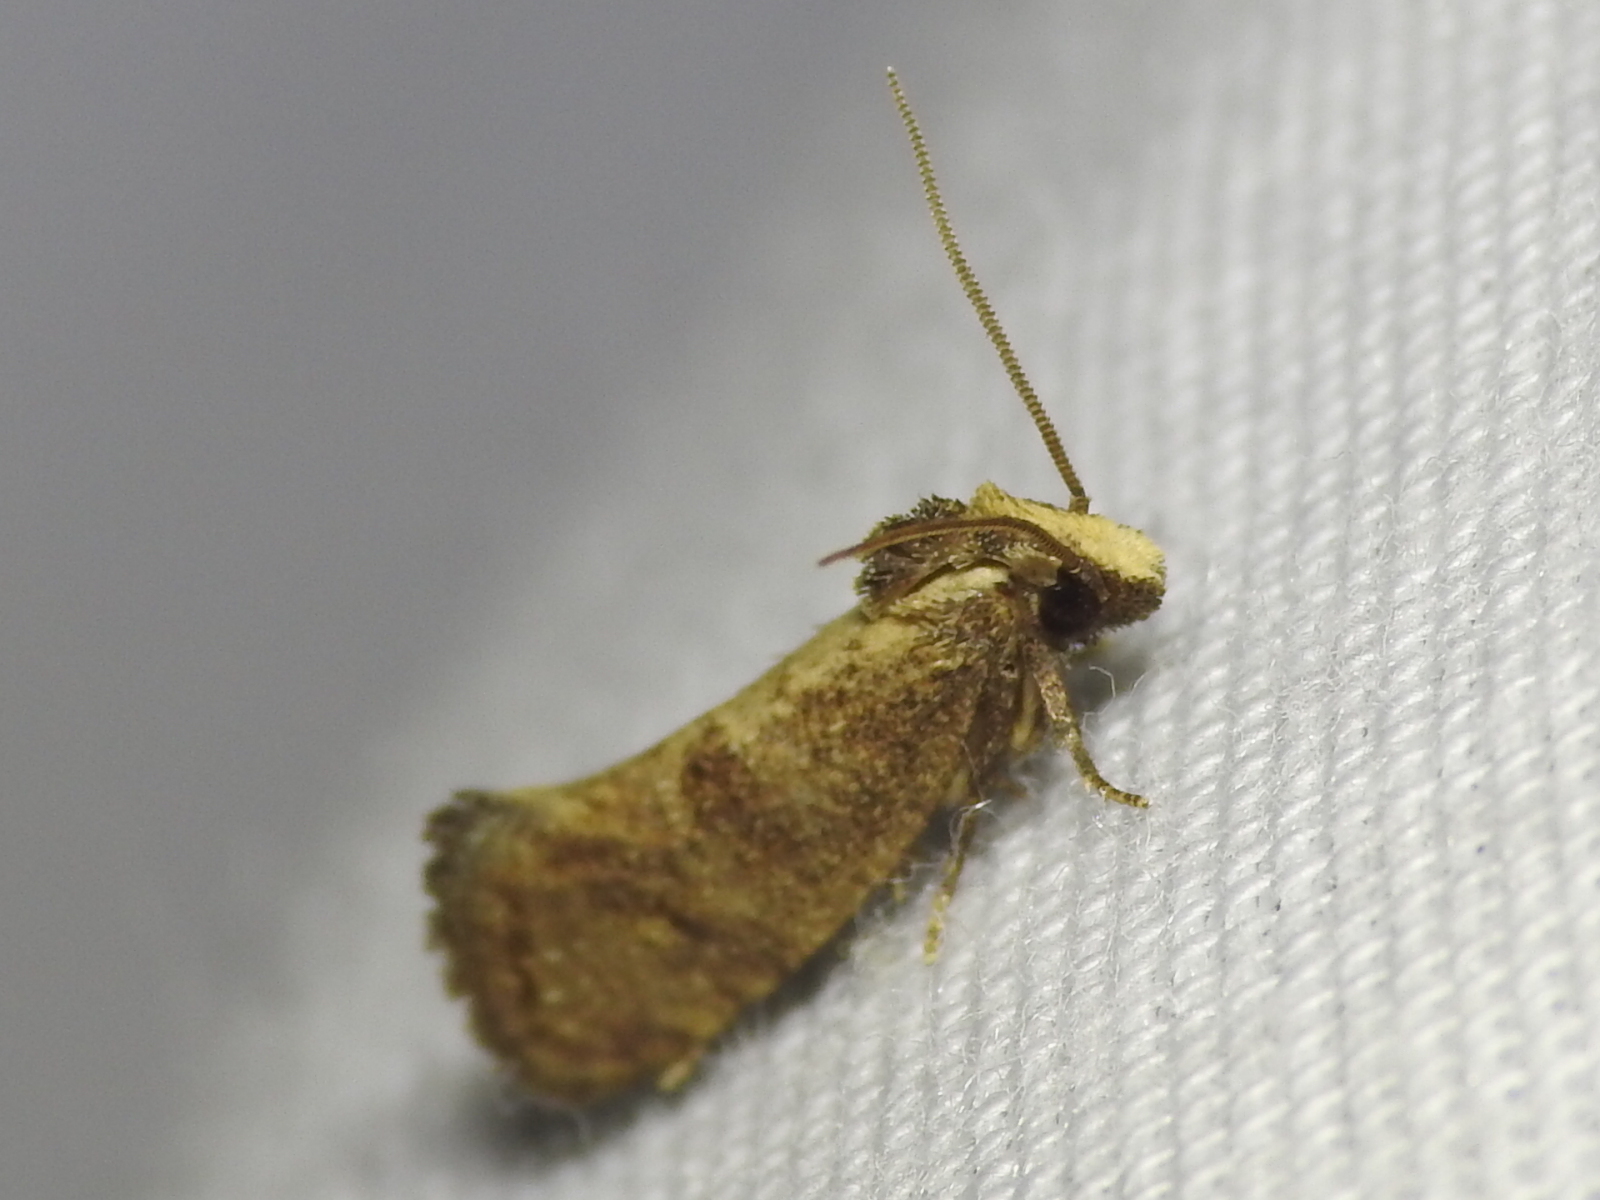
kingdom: Animalia
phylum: Arthropoda
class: Insecta
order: Lepidoptera
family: Tineidae
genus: Acrolophus
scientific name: Acrolophus texanella
